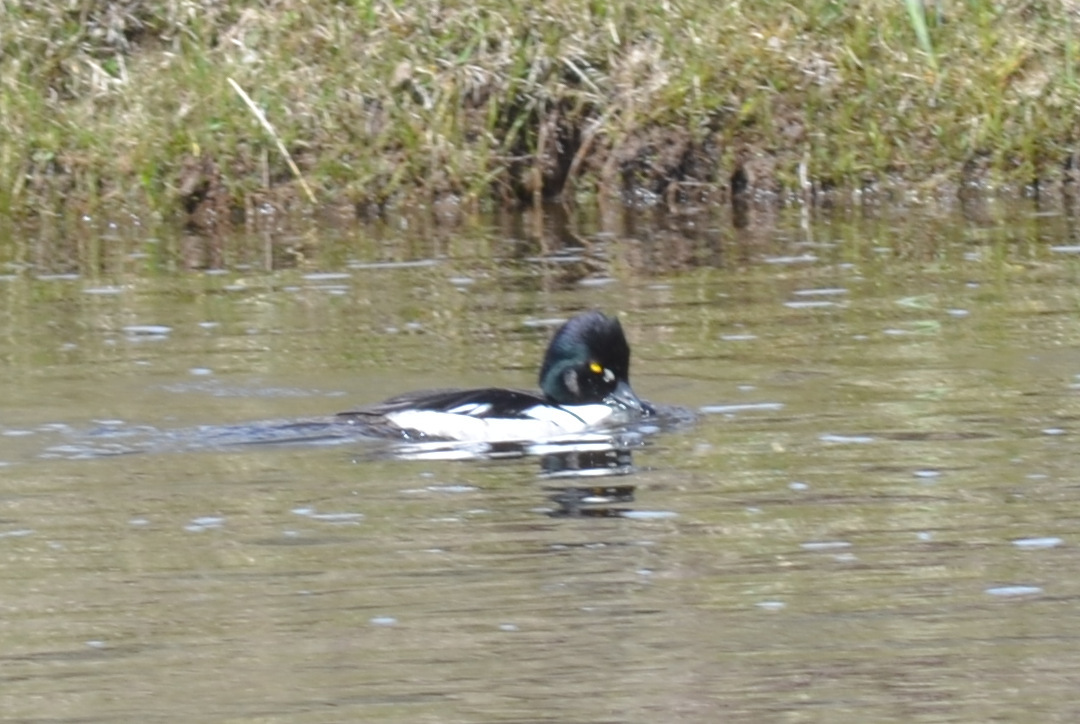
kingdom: Animalia
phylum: Chordata
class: Aves
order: Anseriformes
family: Anatidae
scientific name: Anatidae
